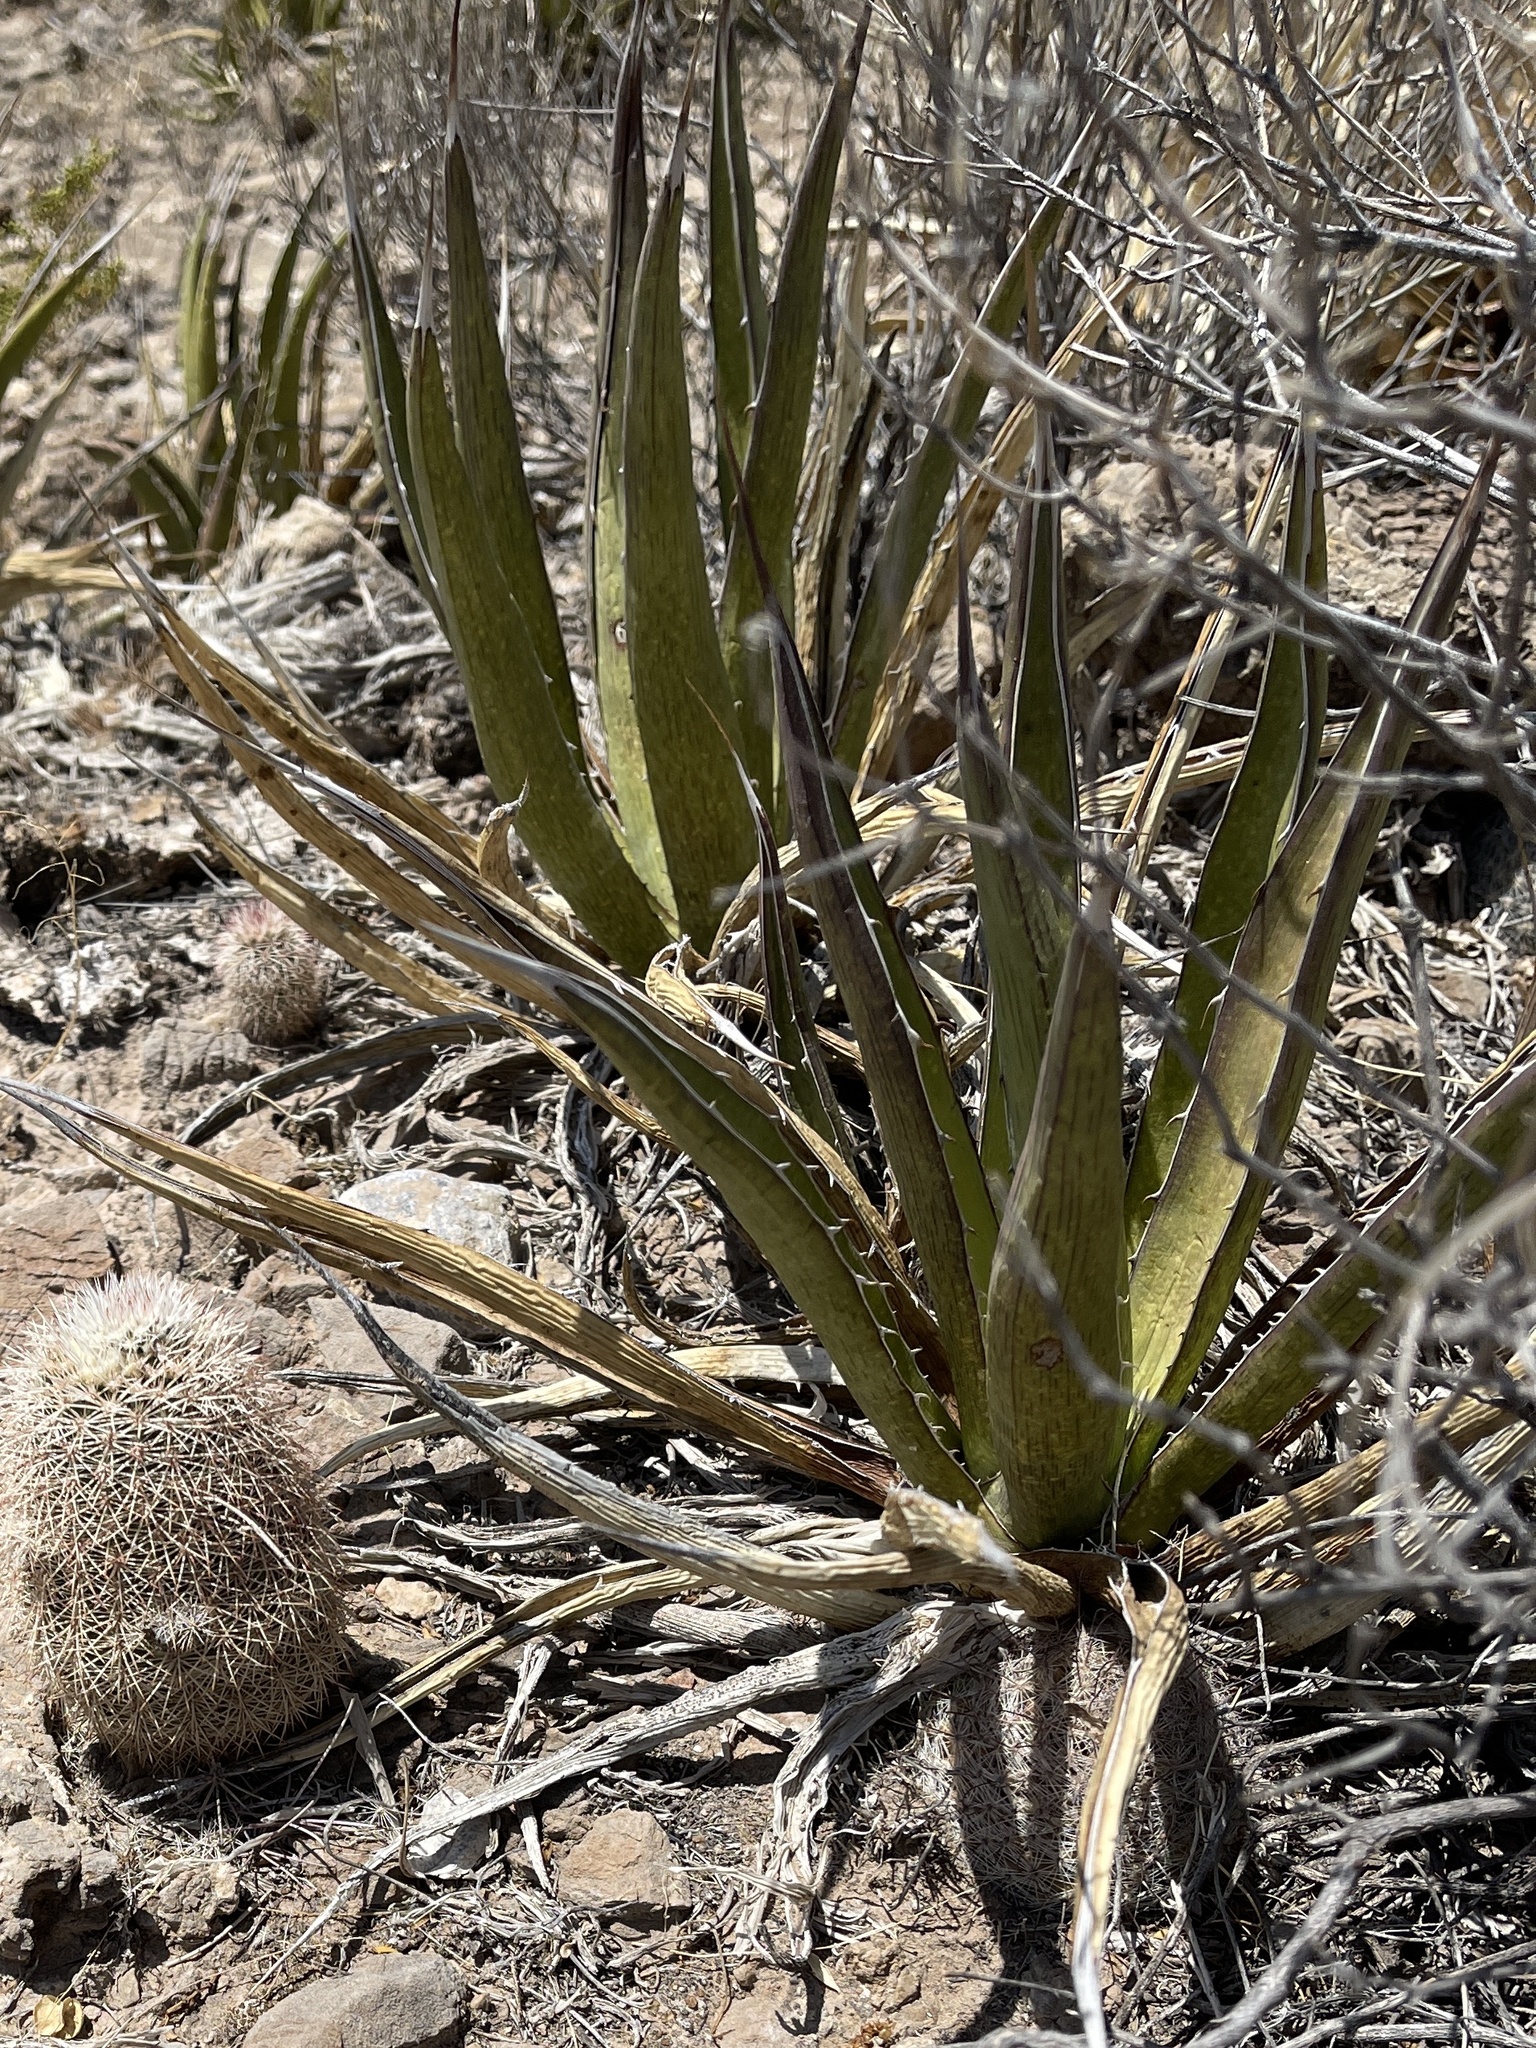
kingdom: Plantae
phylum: Tracheophyta
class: Liliopsida
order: Asparagales
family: Asparagaceae
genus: Agave
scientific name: Agave lechuguilla
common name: Lecheguilla agave
